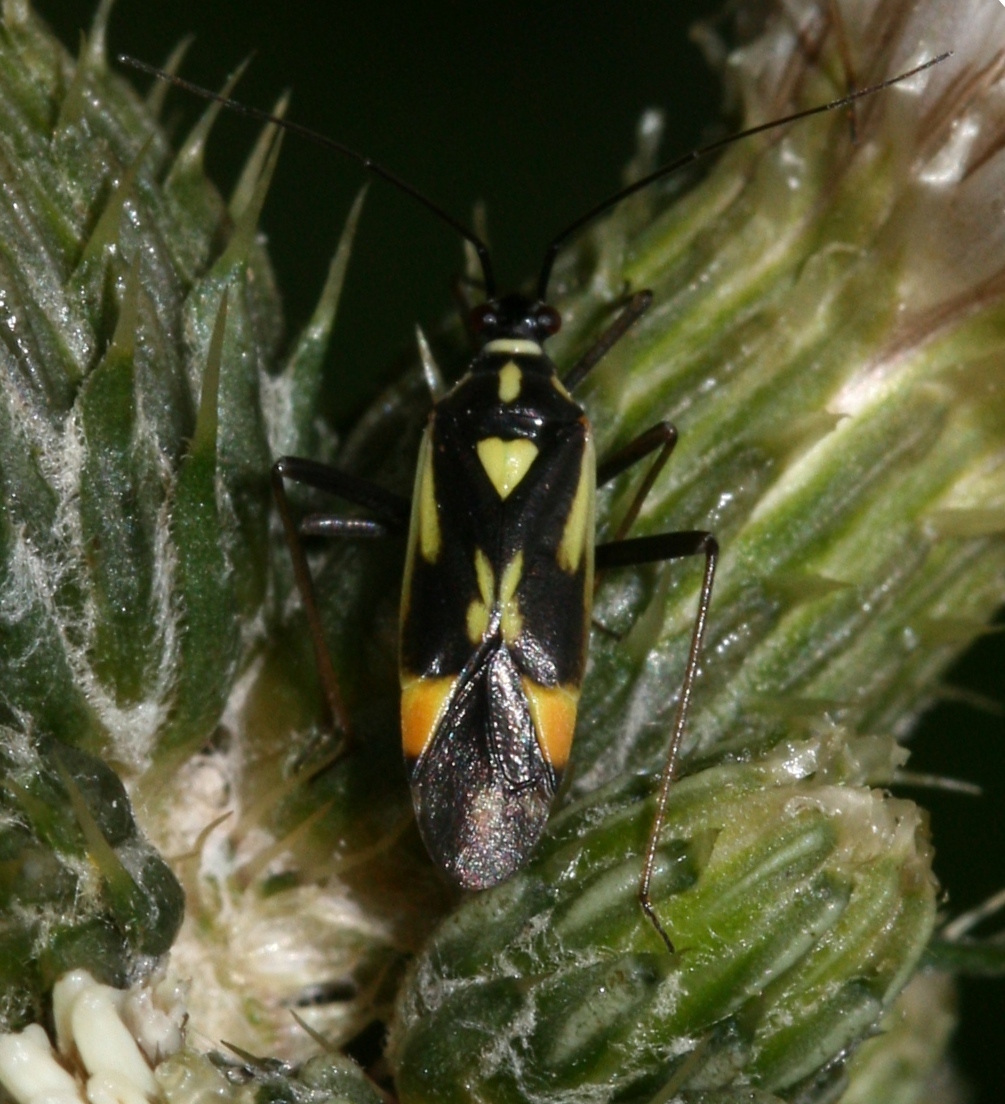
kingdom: Animalia
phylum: Arthropoda
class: Insecta
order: Hemiptera
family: Miridae
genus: Grypocoris
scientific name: Grypocoris stysi
